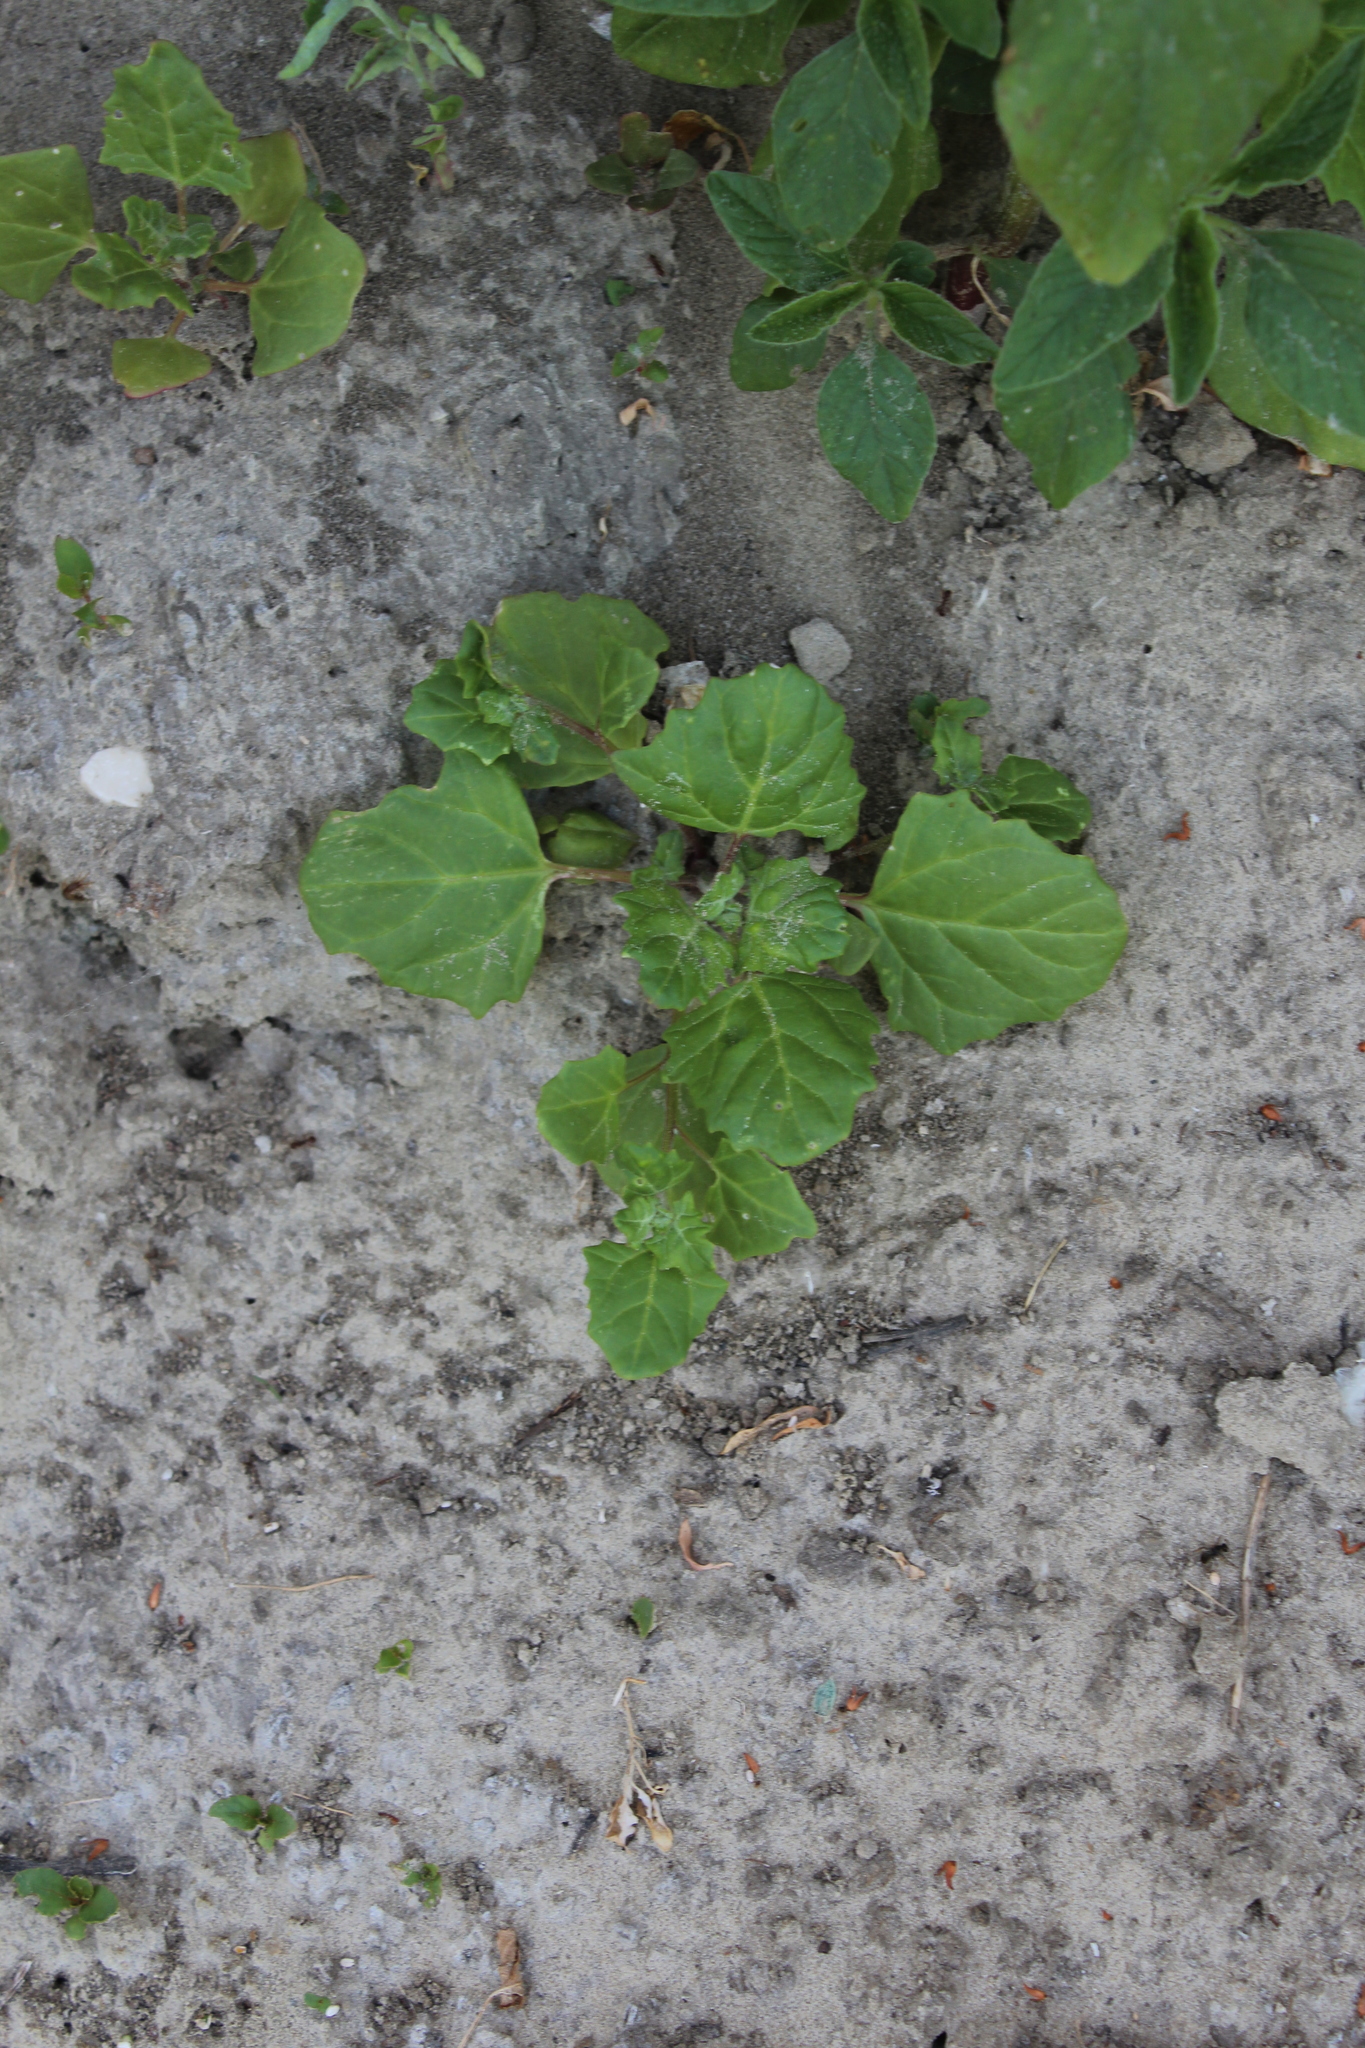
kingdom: Plantae
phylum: Tracheophyta
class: Magnoliopsida
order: Caryophyllales
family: Amaranthaceae
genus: Oxybasis
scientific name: Oxybasis rubra
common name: Red goosefoot
